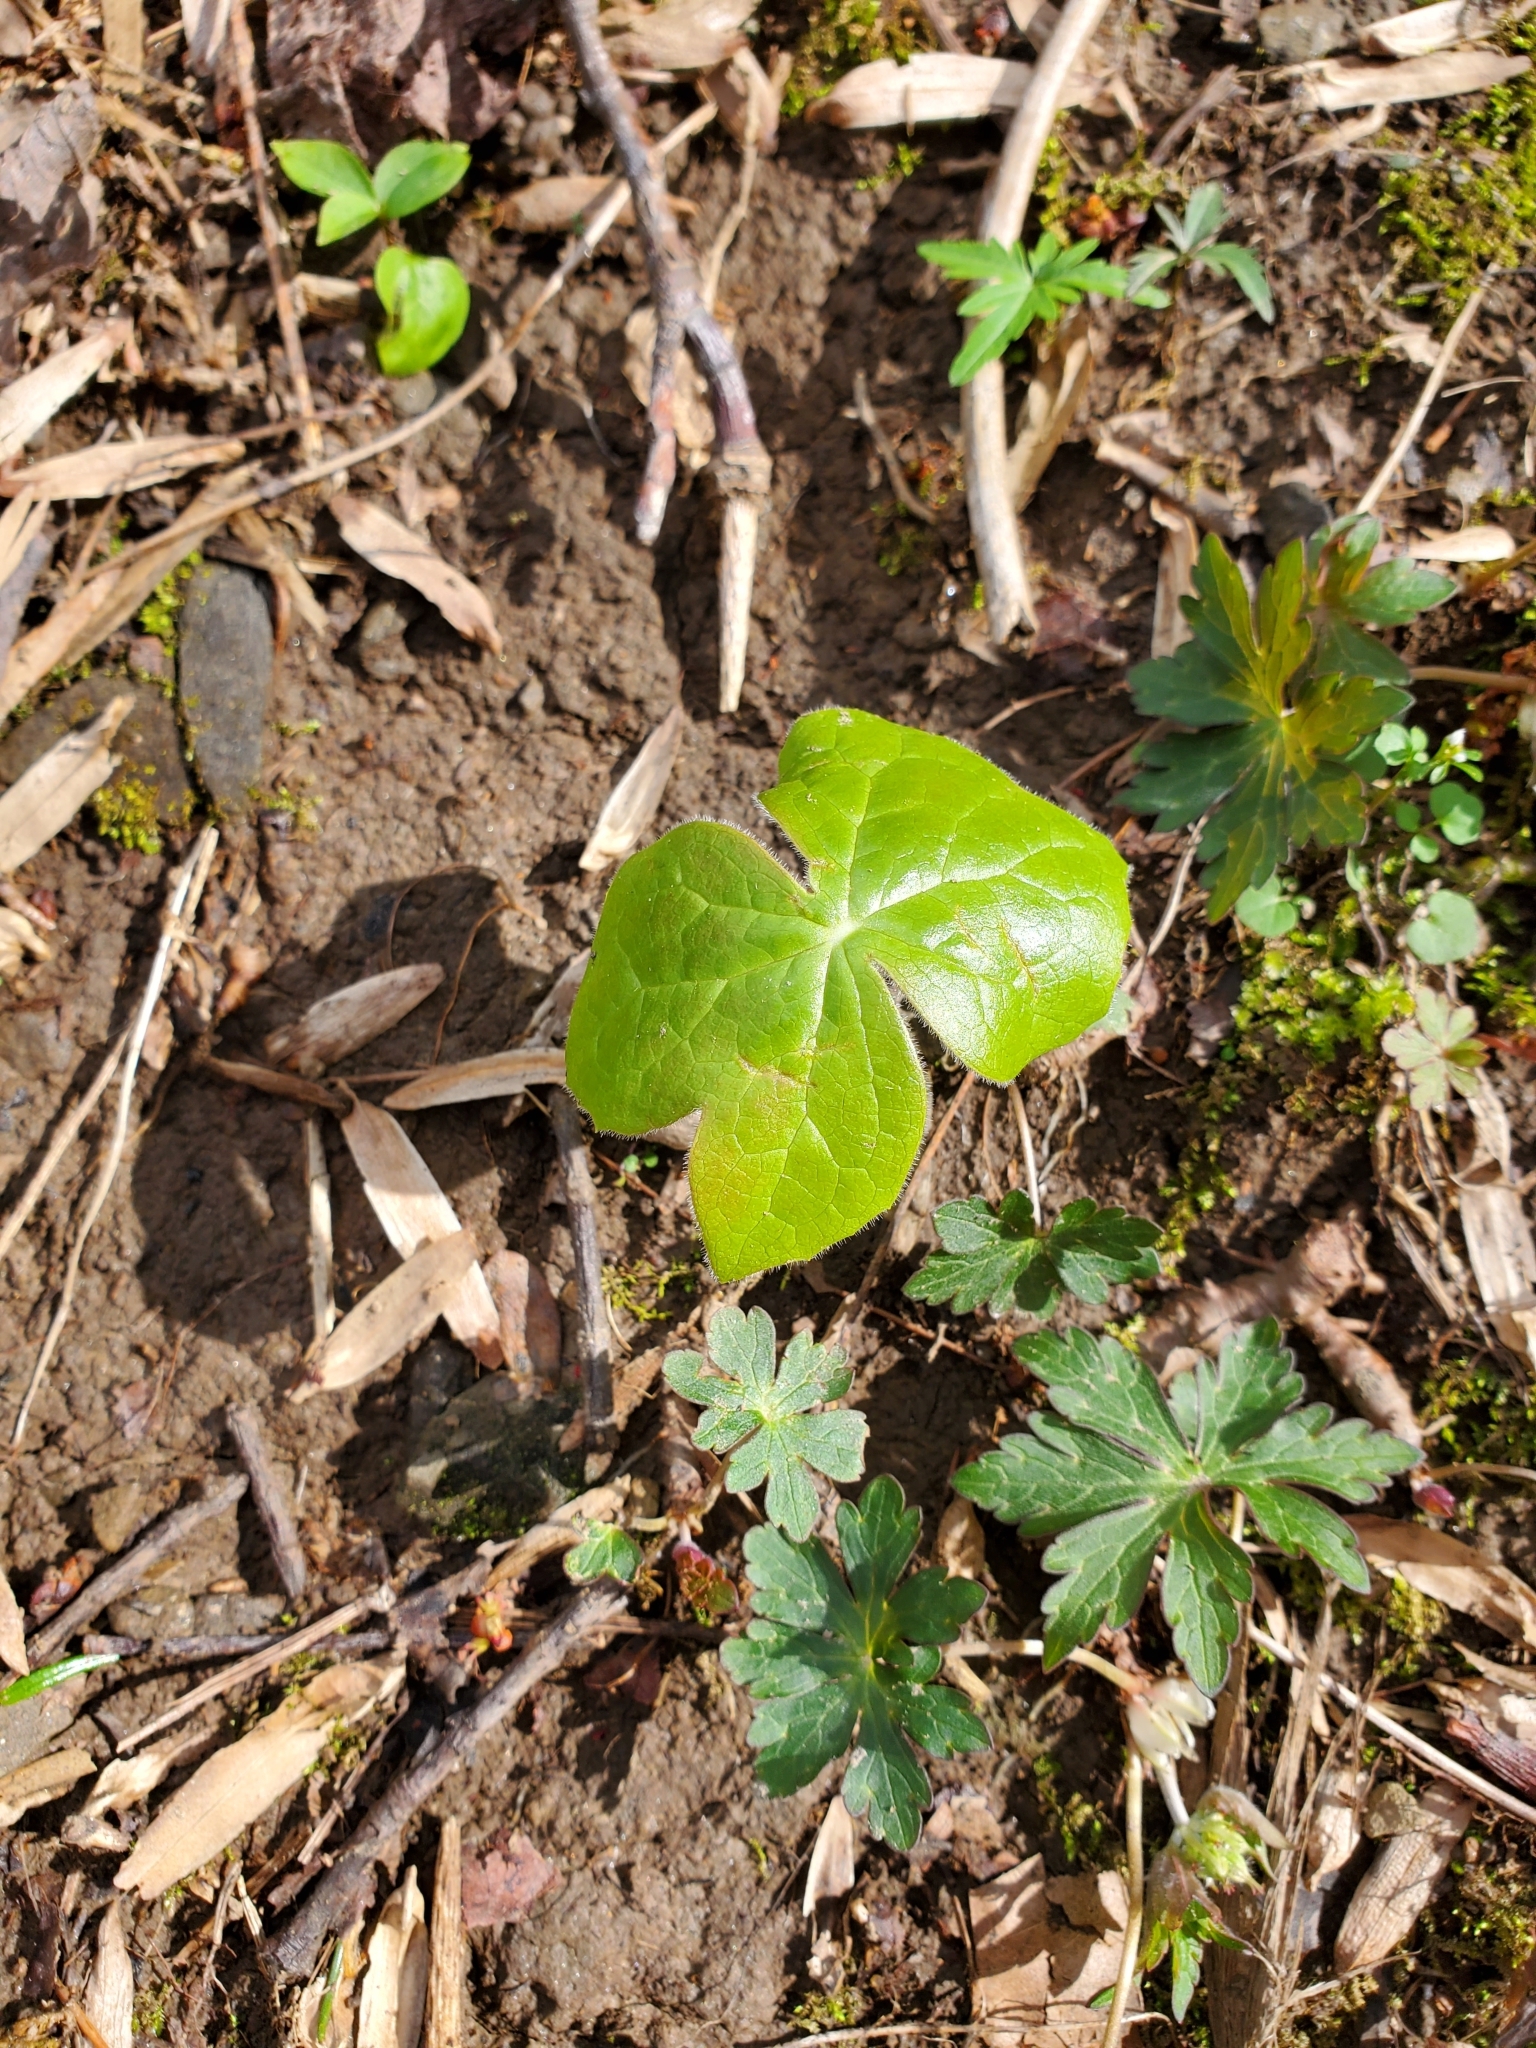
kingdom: Plantae
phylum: Tracheophyta
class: Magnoliopsida
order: Ranunculales
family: Berberidaceae
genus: Podophyllum
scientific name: Podophyllum peltatum
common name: Wild mandrake
